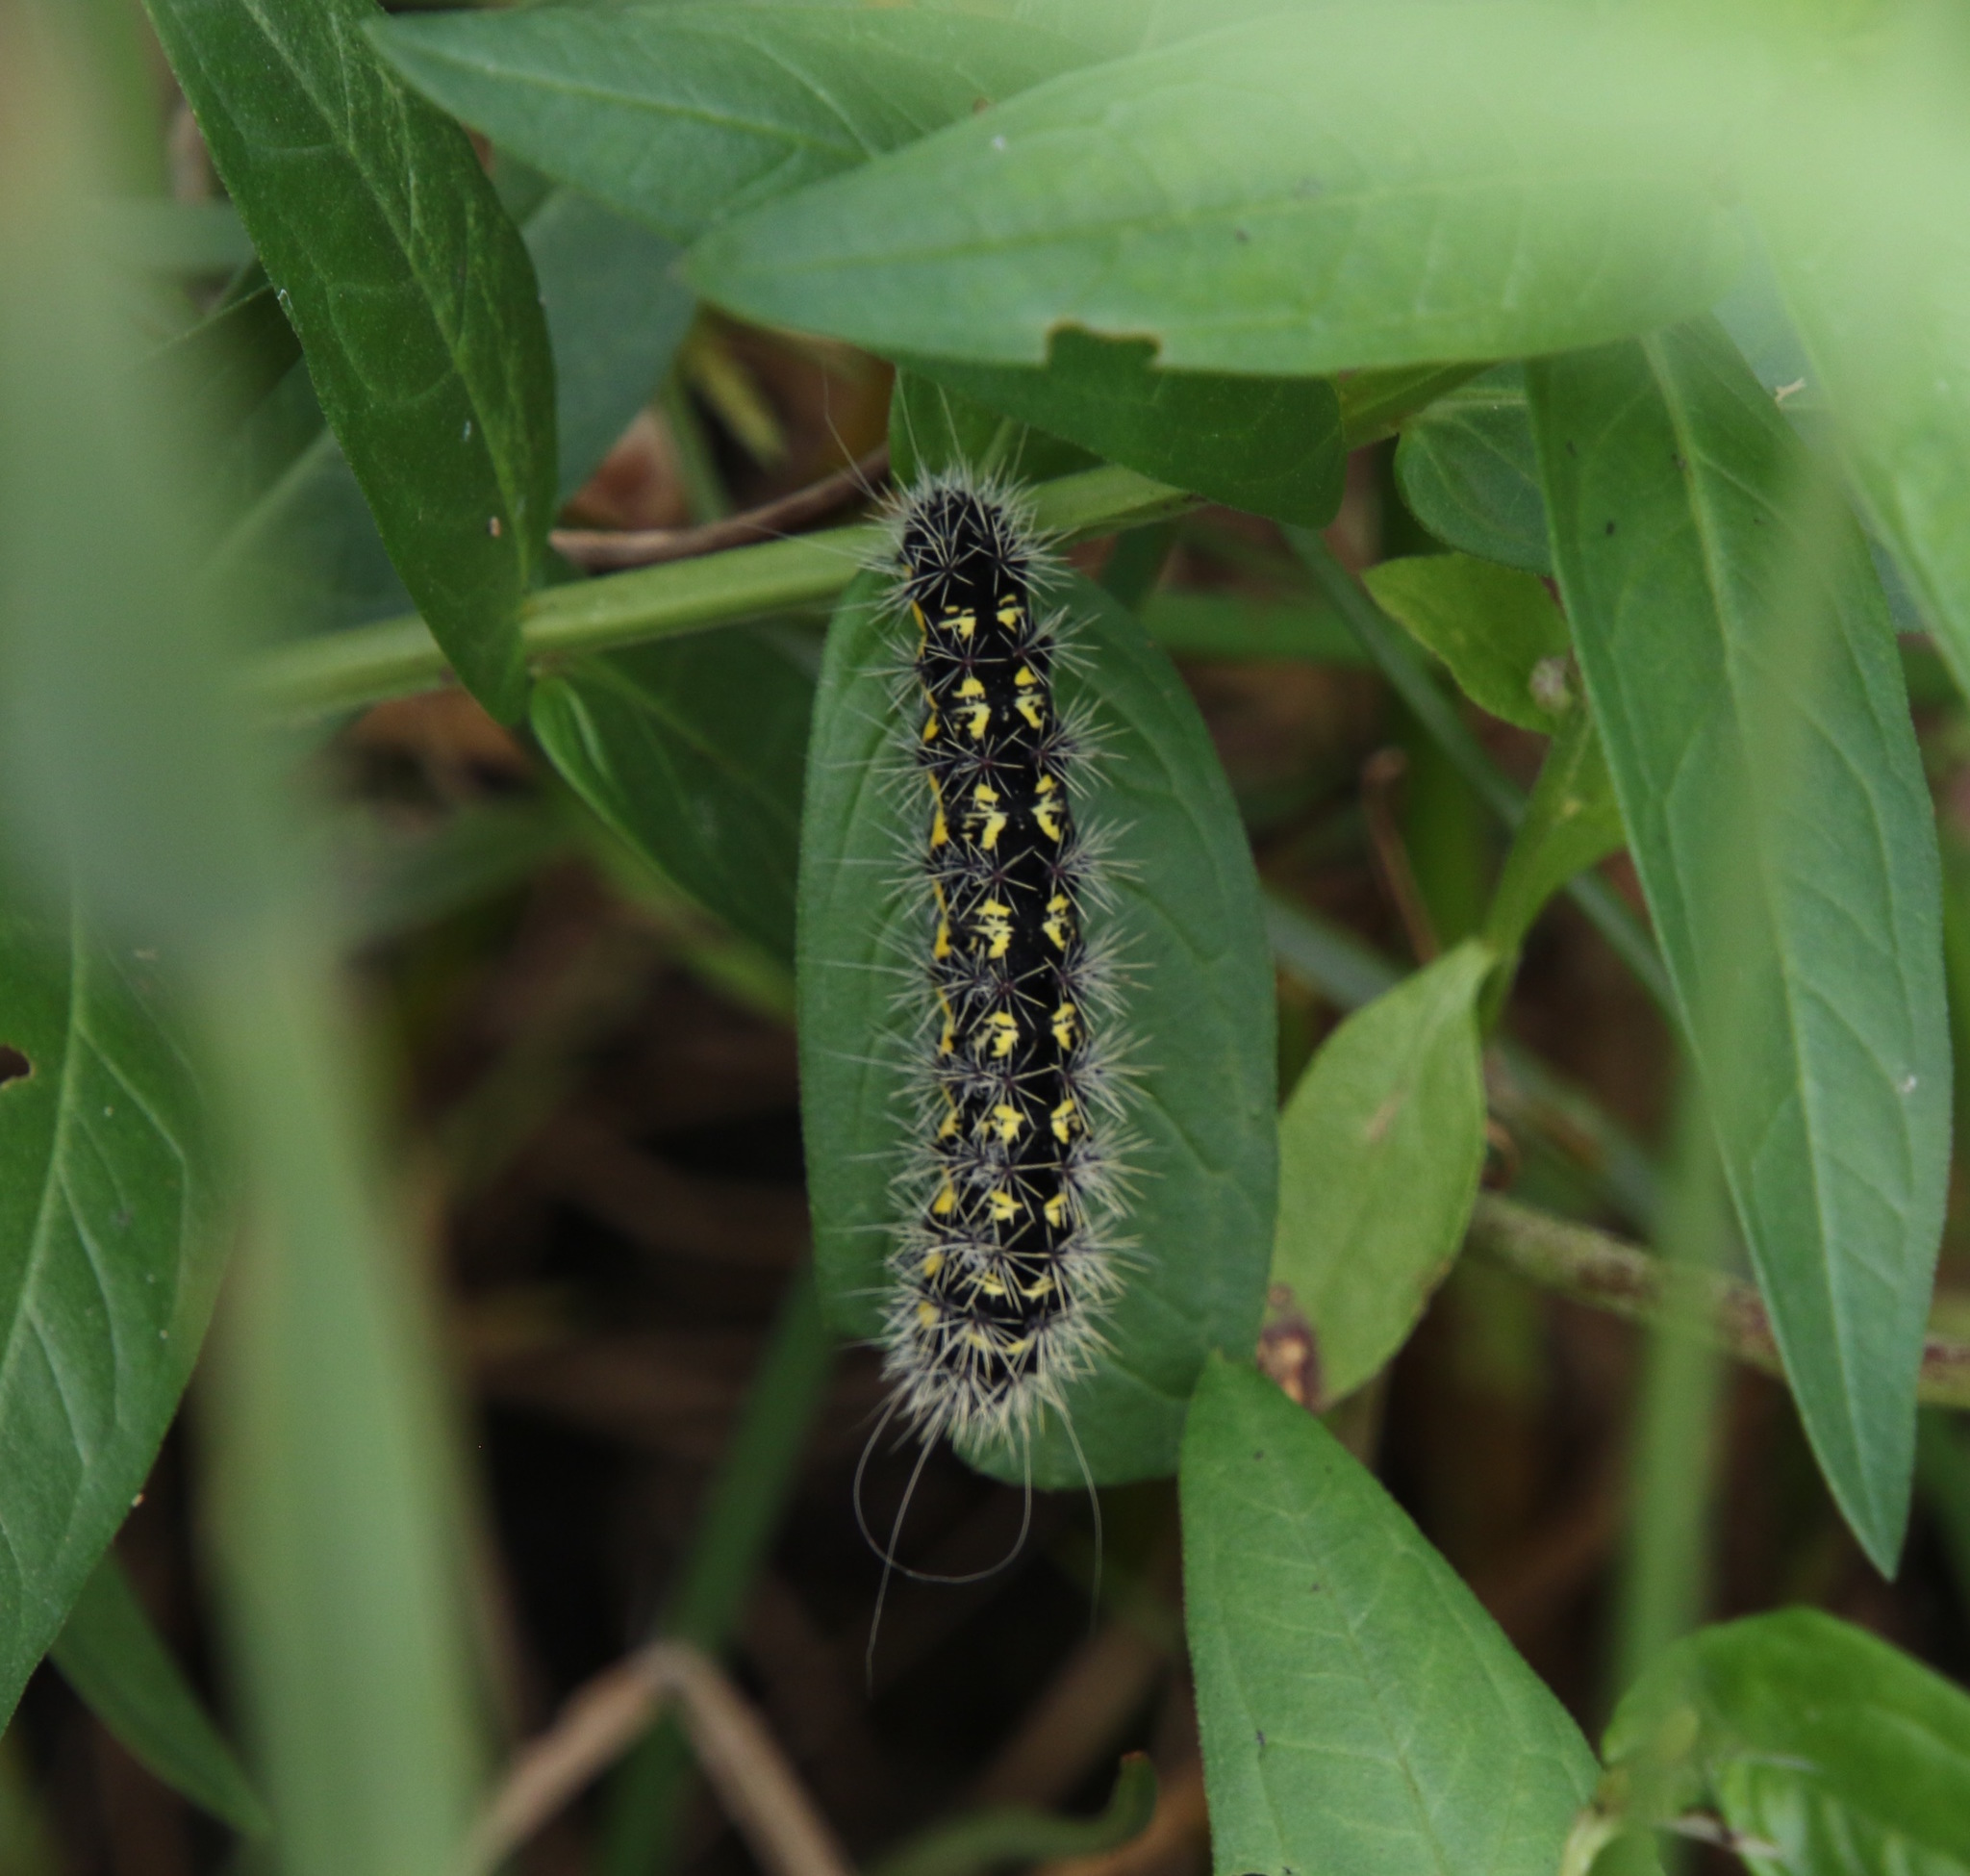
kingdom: Animalia
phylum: Arthropoda
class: Insecta
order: Lepidoptera
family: Noctuidae
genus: Acronicta
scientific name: Acronicta oblinita
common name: Smeared dagger
